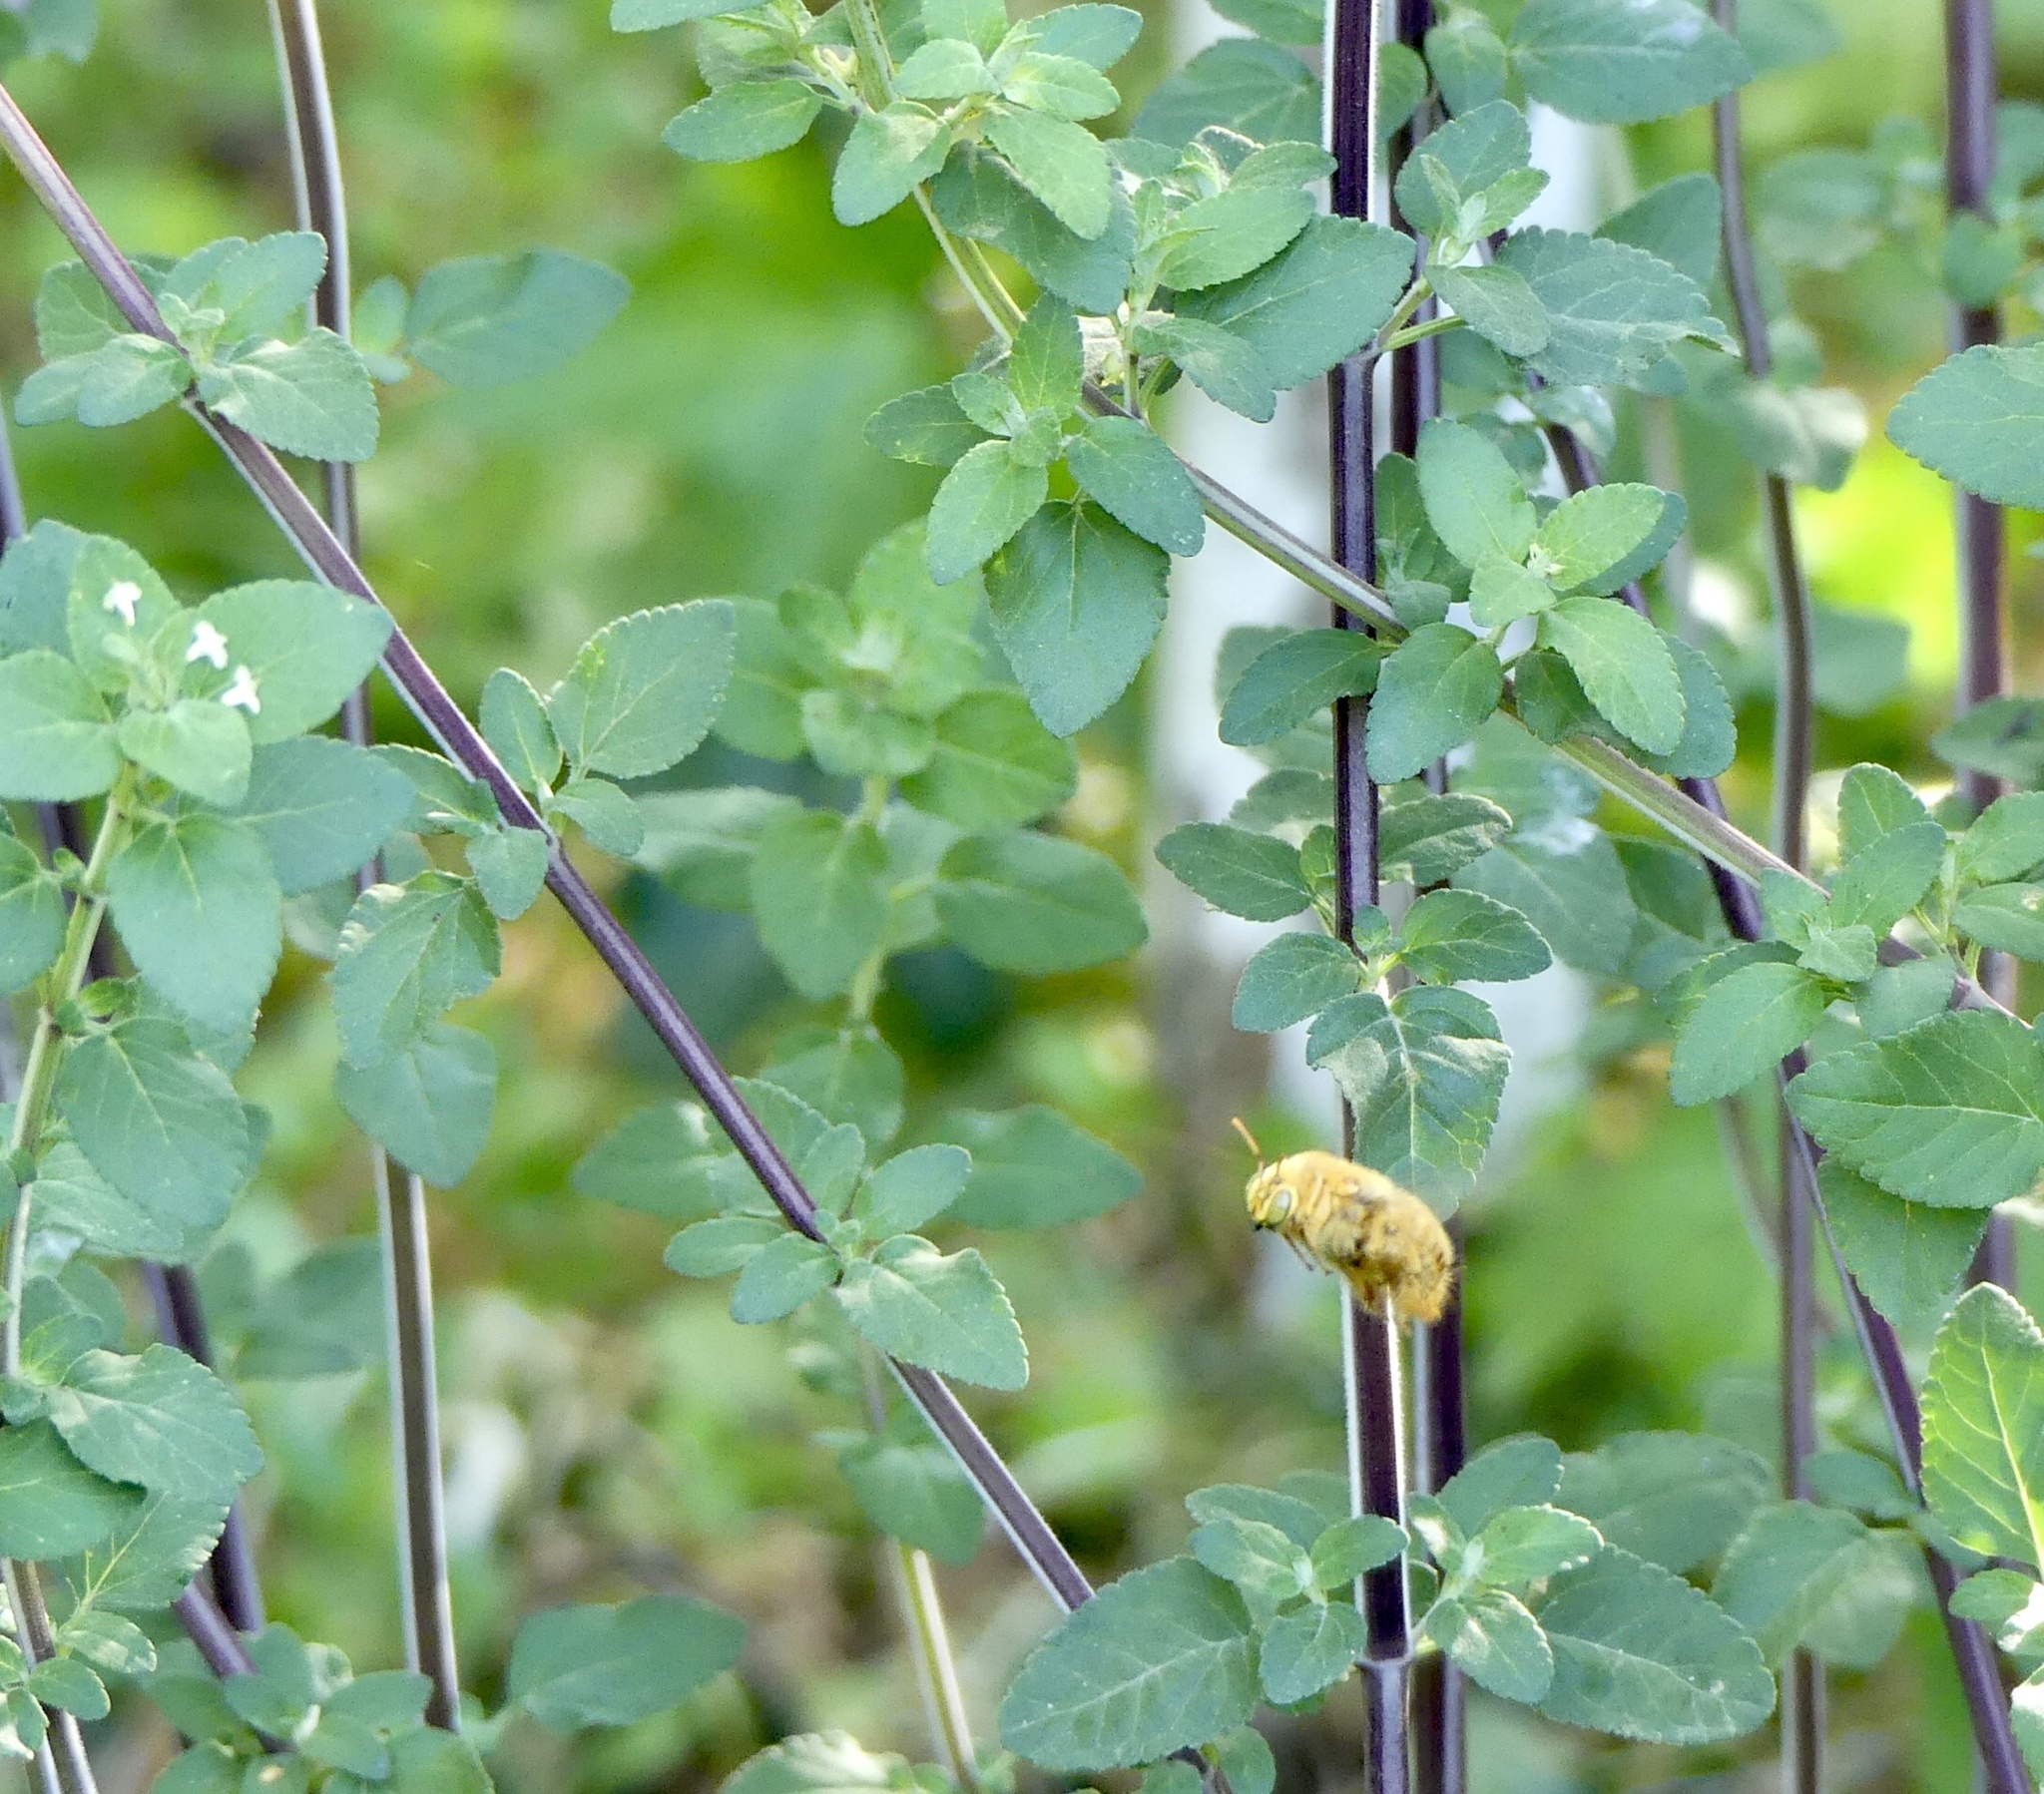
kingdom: Animalia
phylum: Arthropoda
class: Insecta
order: Hymenoptera
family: Apidae
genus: Xylocopa
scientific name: Xylocopa sonorina
